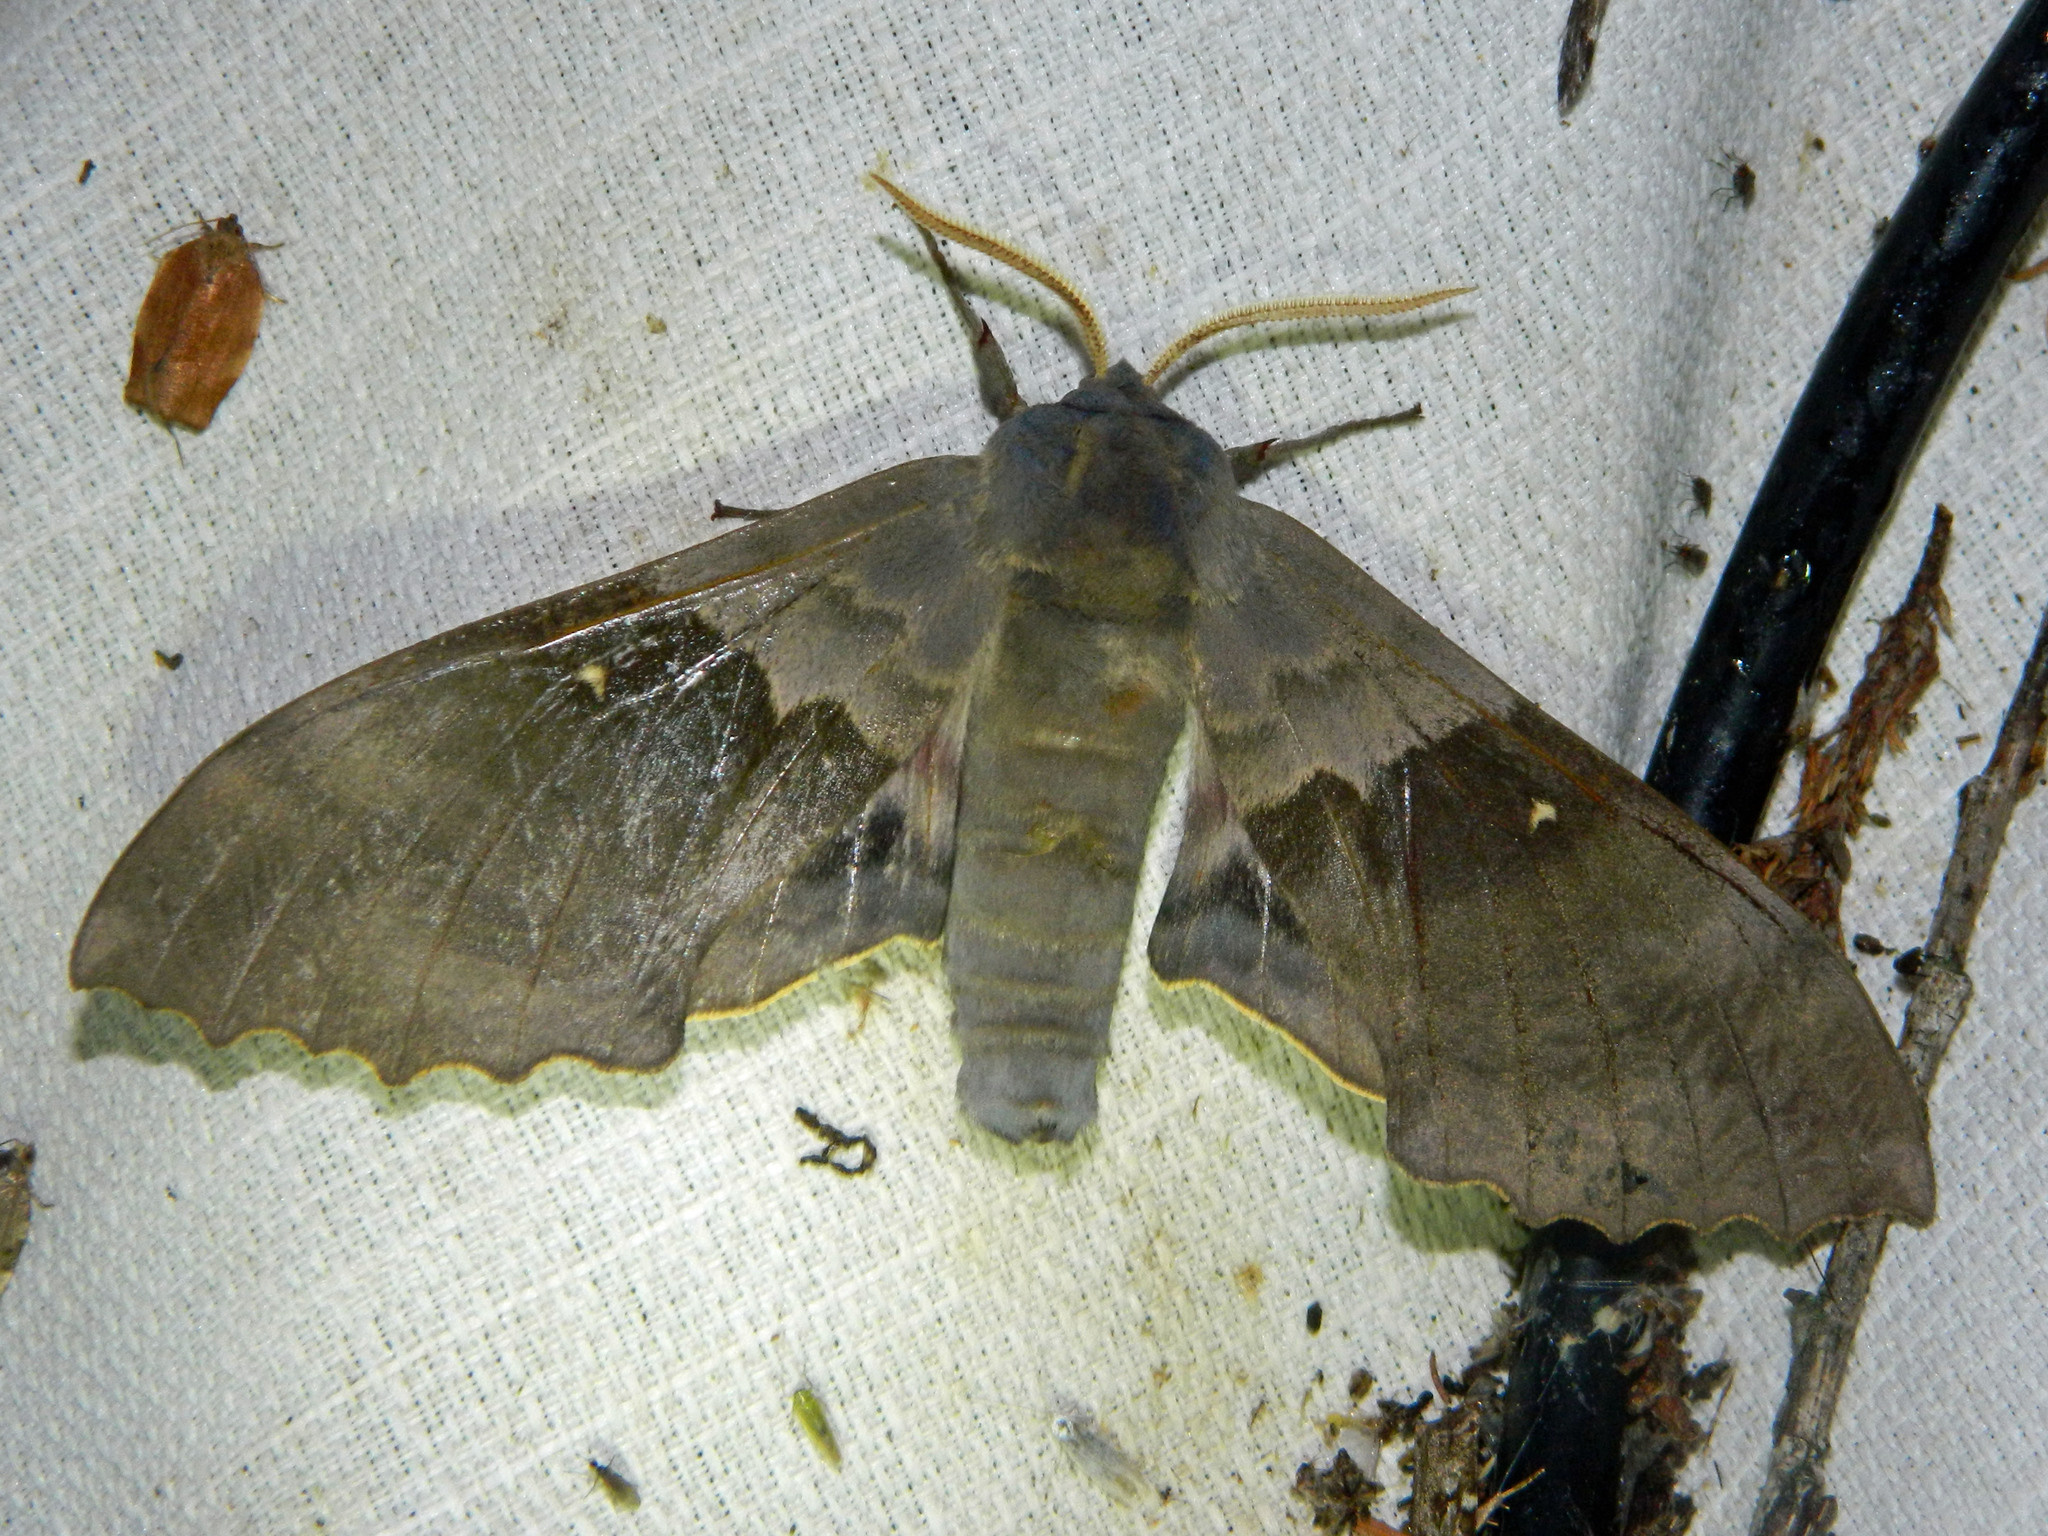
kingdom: Animalia
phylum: Arthropoda
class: Insecta
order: Lepidoptera
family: Sphingidae
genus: Pachysphinx
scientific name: Pachysphinx modesta
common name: Big poplar sphinx
